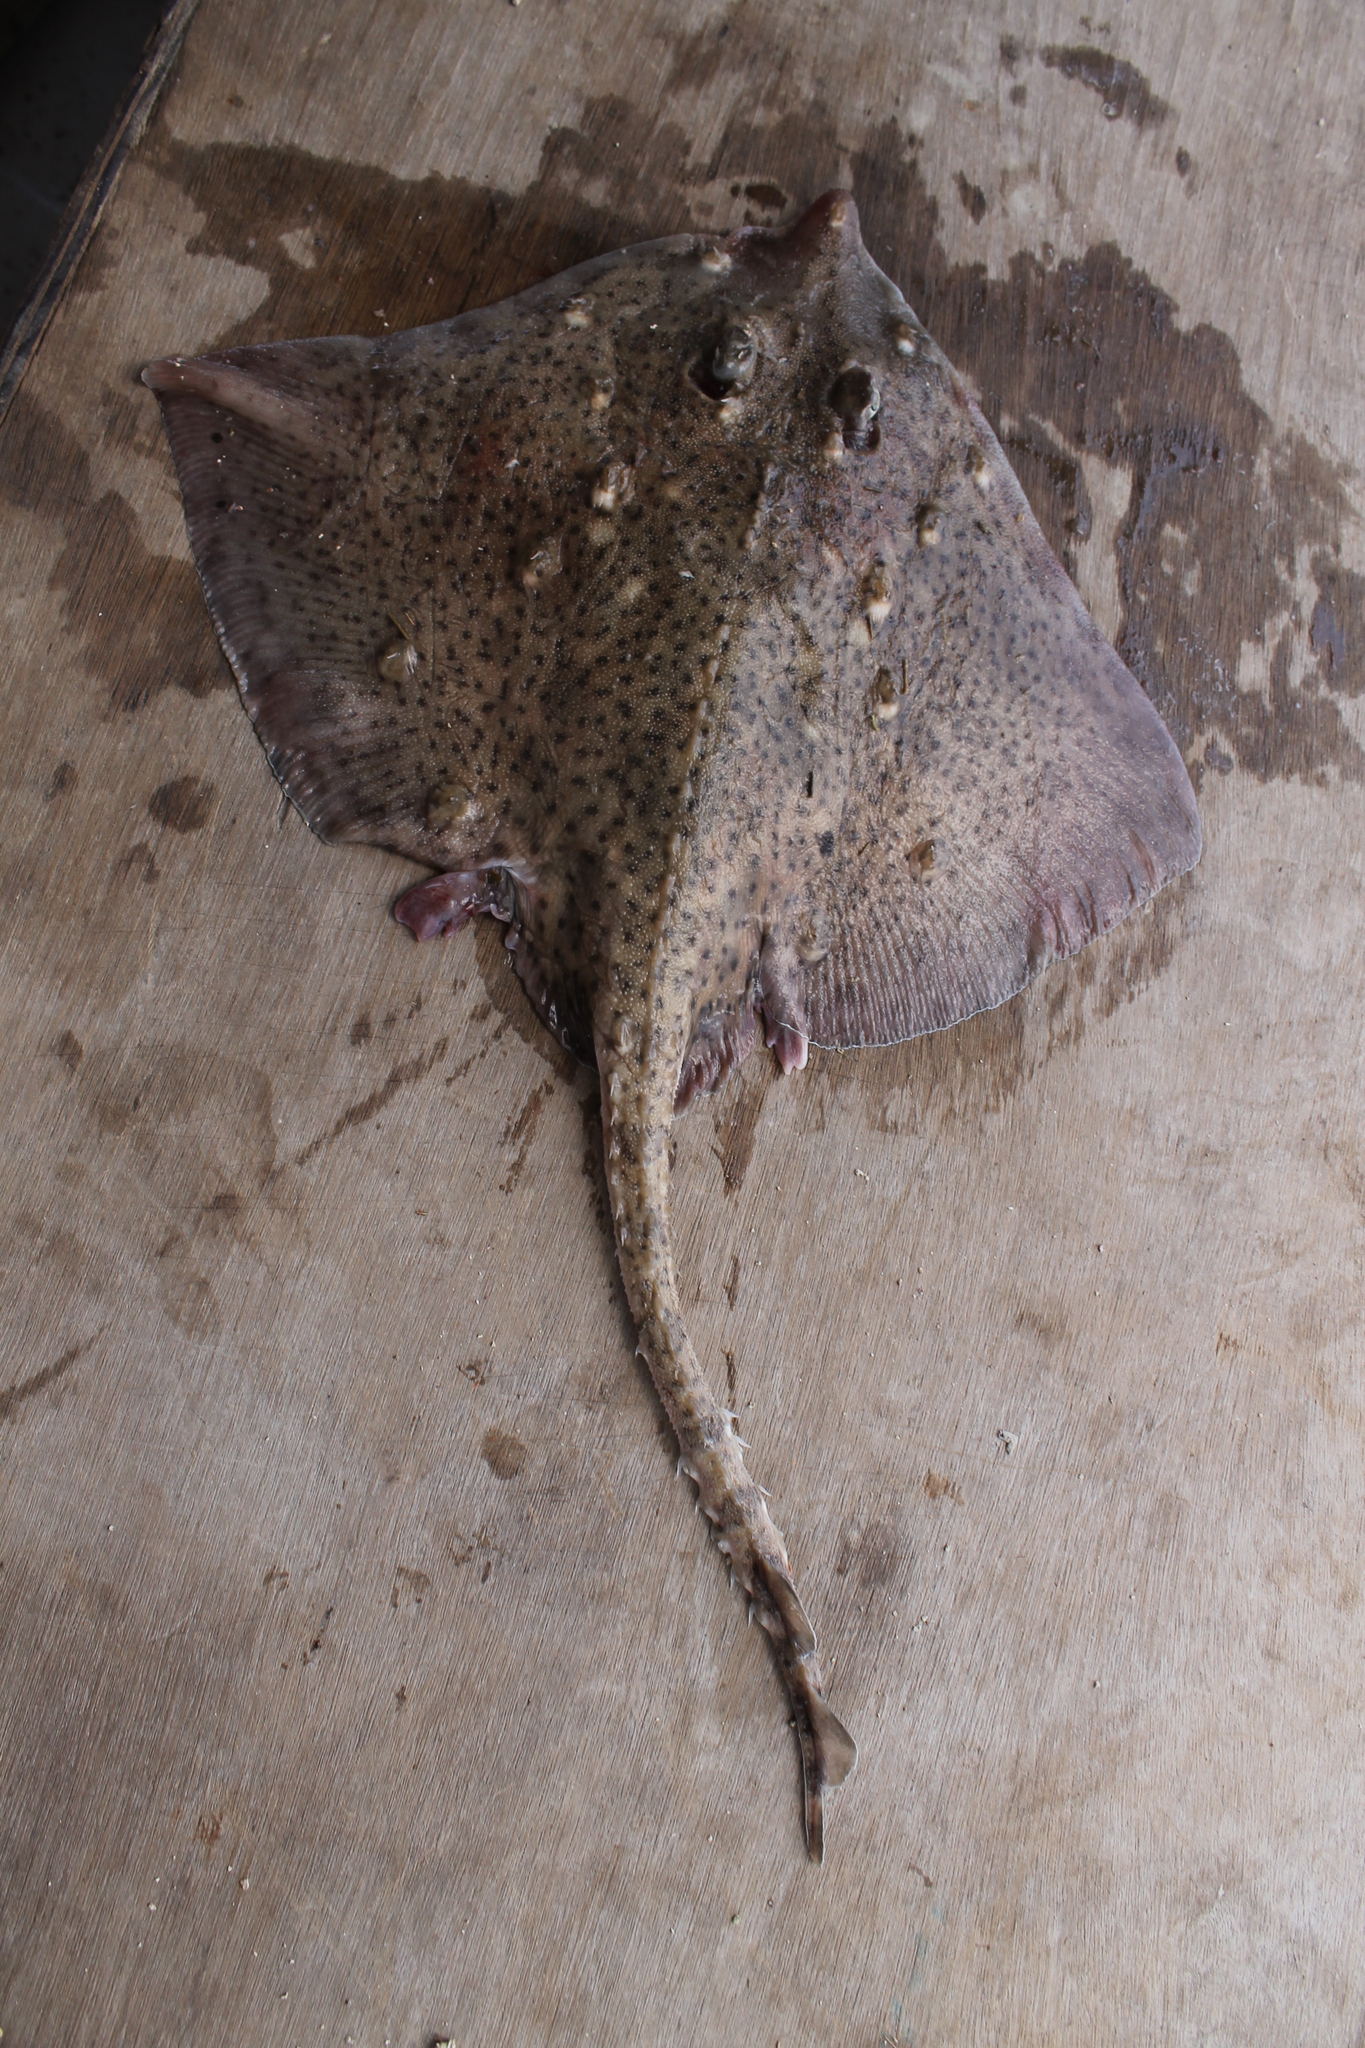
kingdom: Animalia
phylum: Chordata
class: Elasmobranchii
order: Rajiformes
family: Rajidae
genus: Raja
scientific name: Raja clavata
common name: Thornback ray
